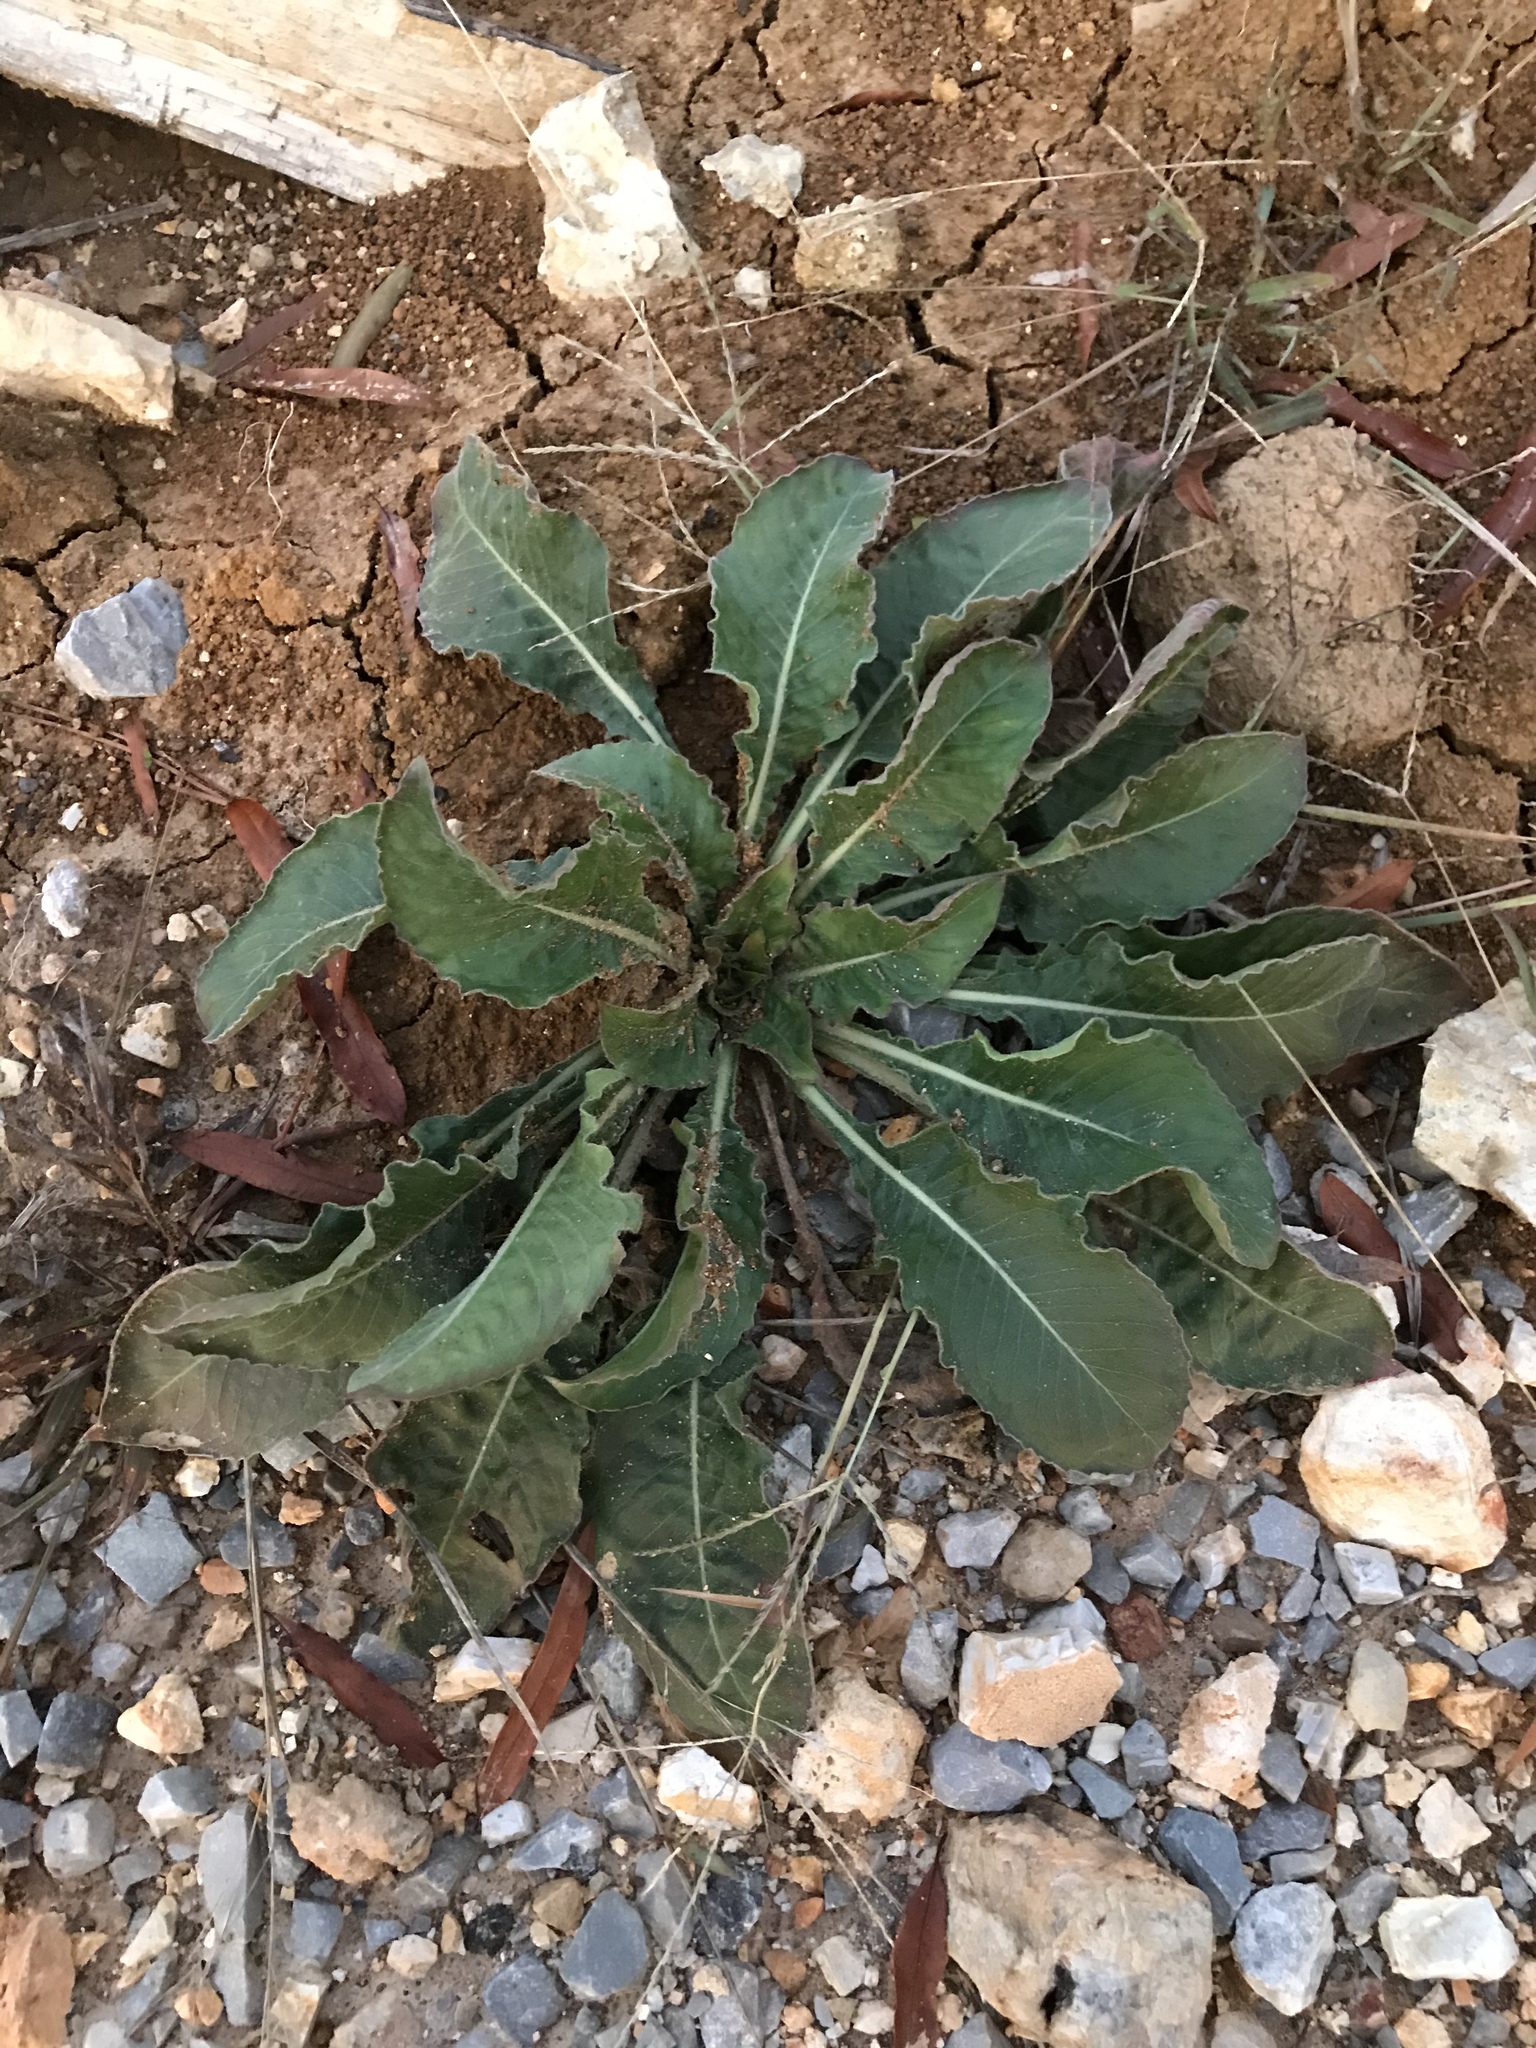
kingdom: Plantae
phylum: Tracheophyta
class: Magnoliopsida
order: Myrtales
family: Onagraceae
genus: Oenothera
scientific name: Oenothera biennis
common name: Common evening-primrose
